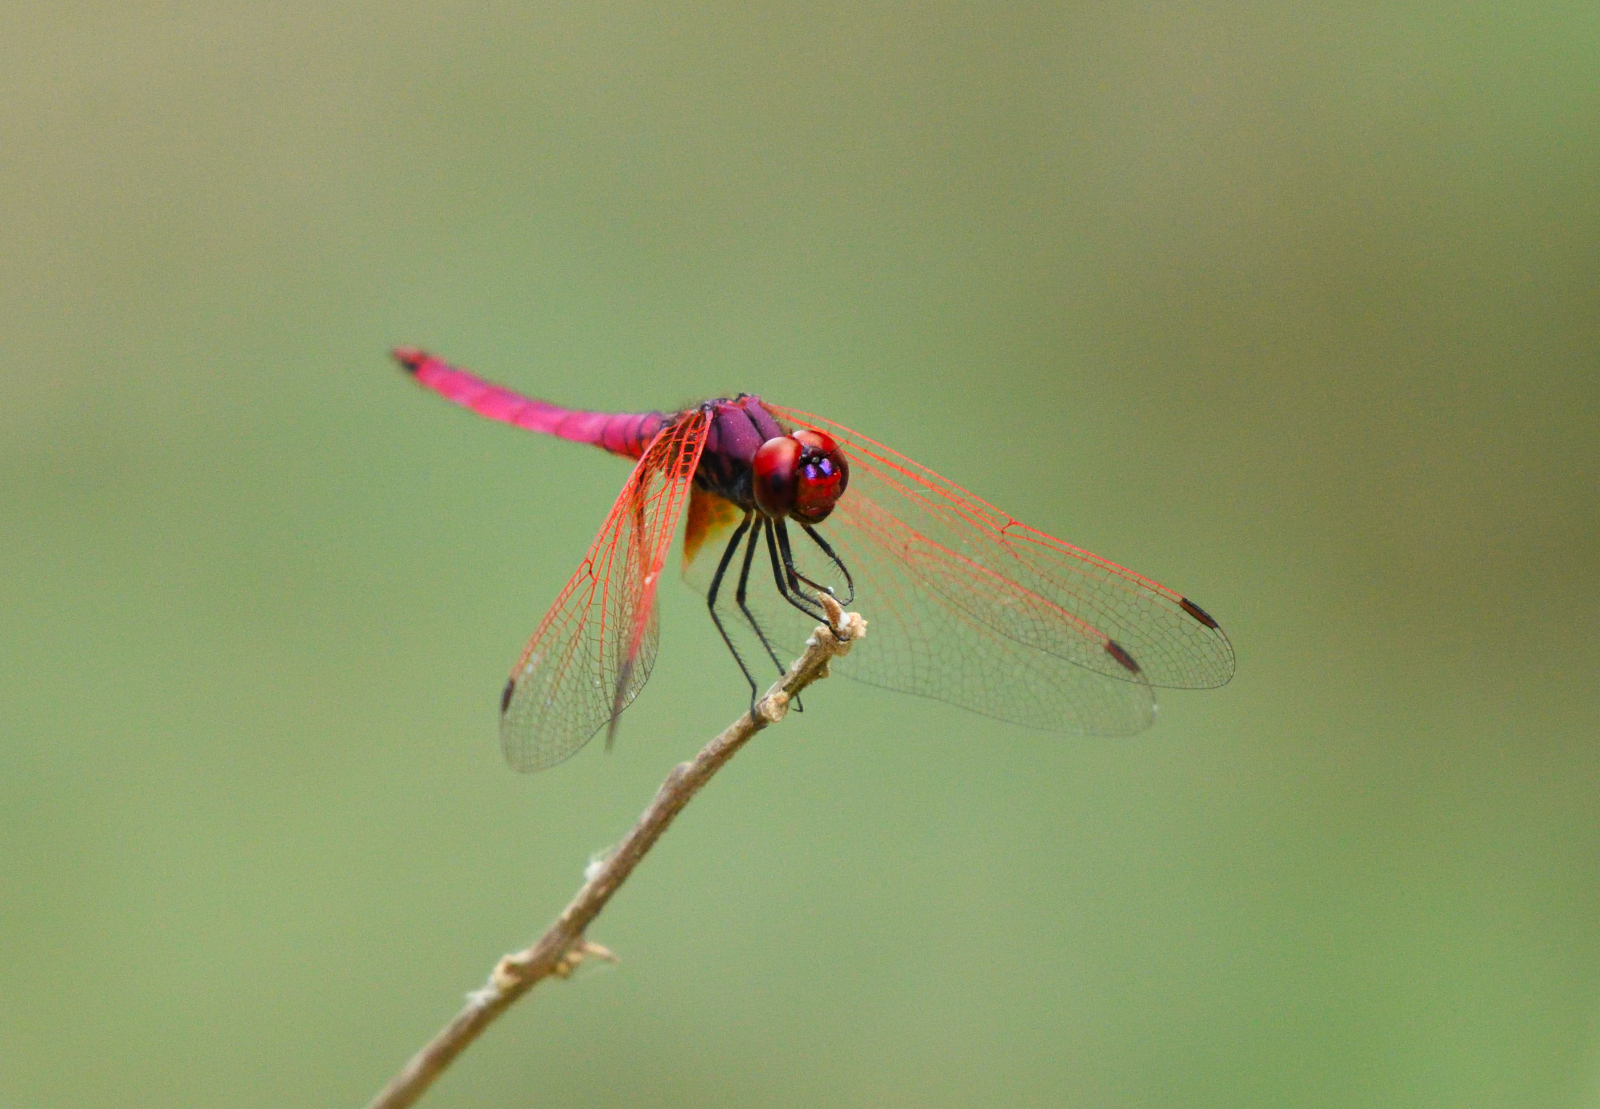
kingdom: Animalia
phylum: Arthropoda
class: Insecta
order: Odonata
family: Libellulidae
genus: Trithemis
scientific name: Trithemis aurora
